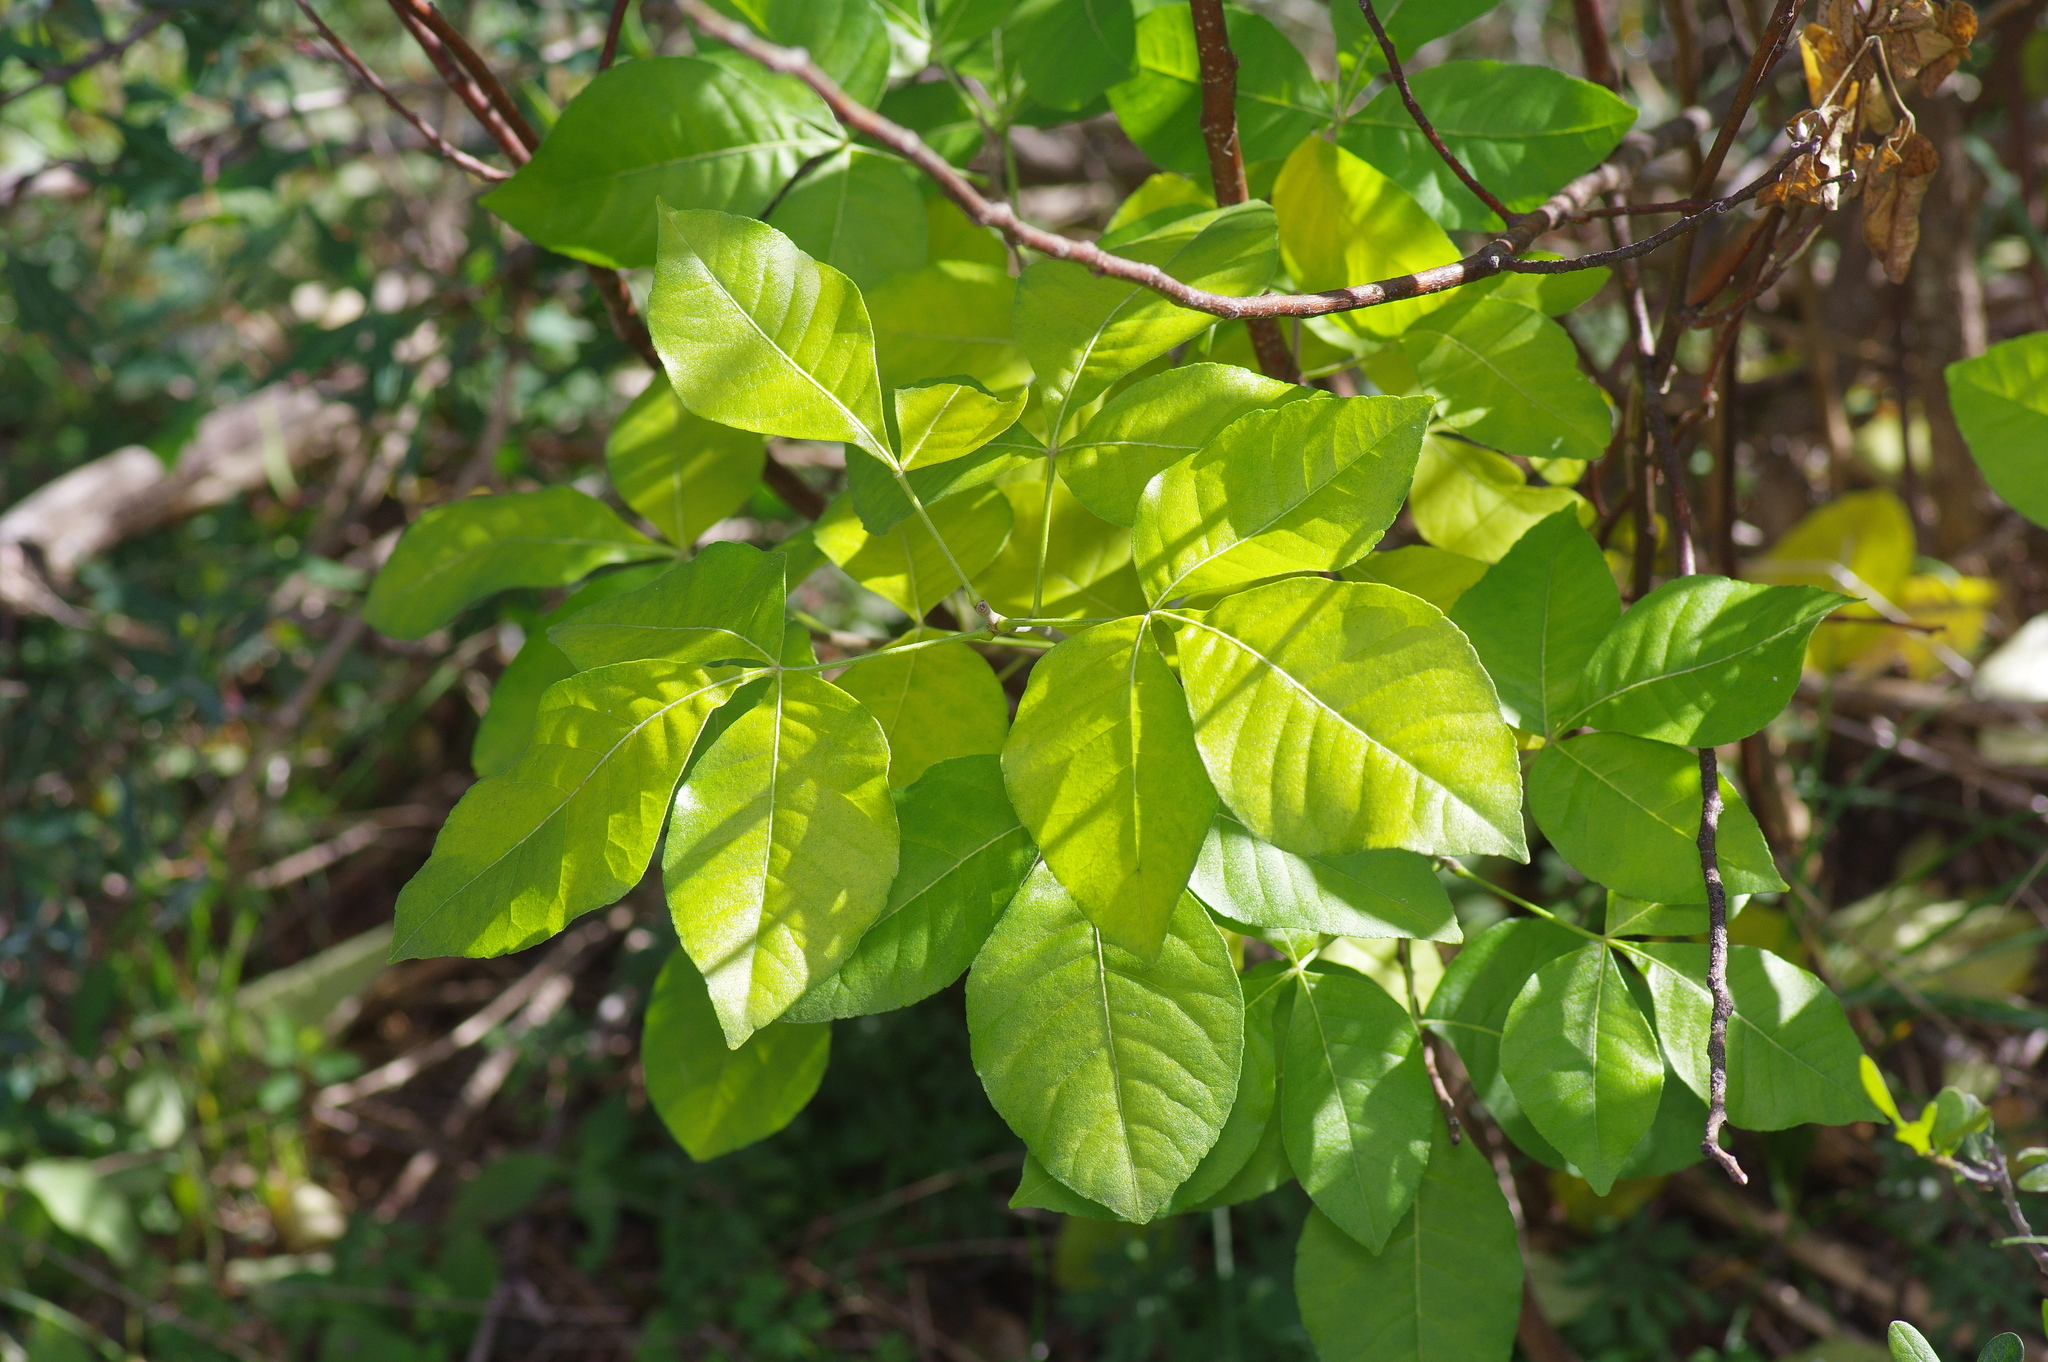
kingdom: Plantae
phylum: Tracheophyta
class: Magnoliopsida
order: Sapindales
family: Rutaceae
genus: Ptelea
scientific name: Ptelea trifoliata
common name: Common hop-tree
